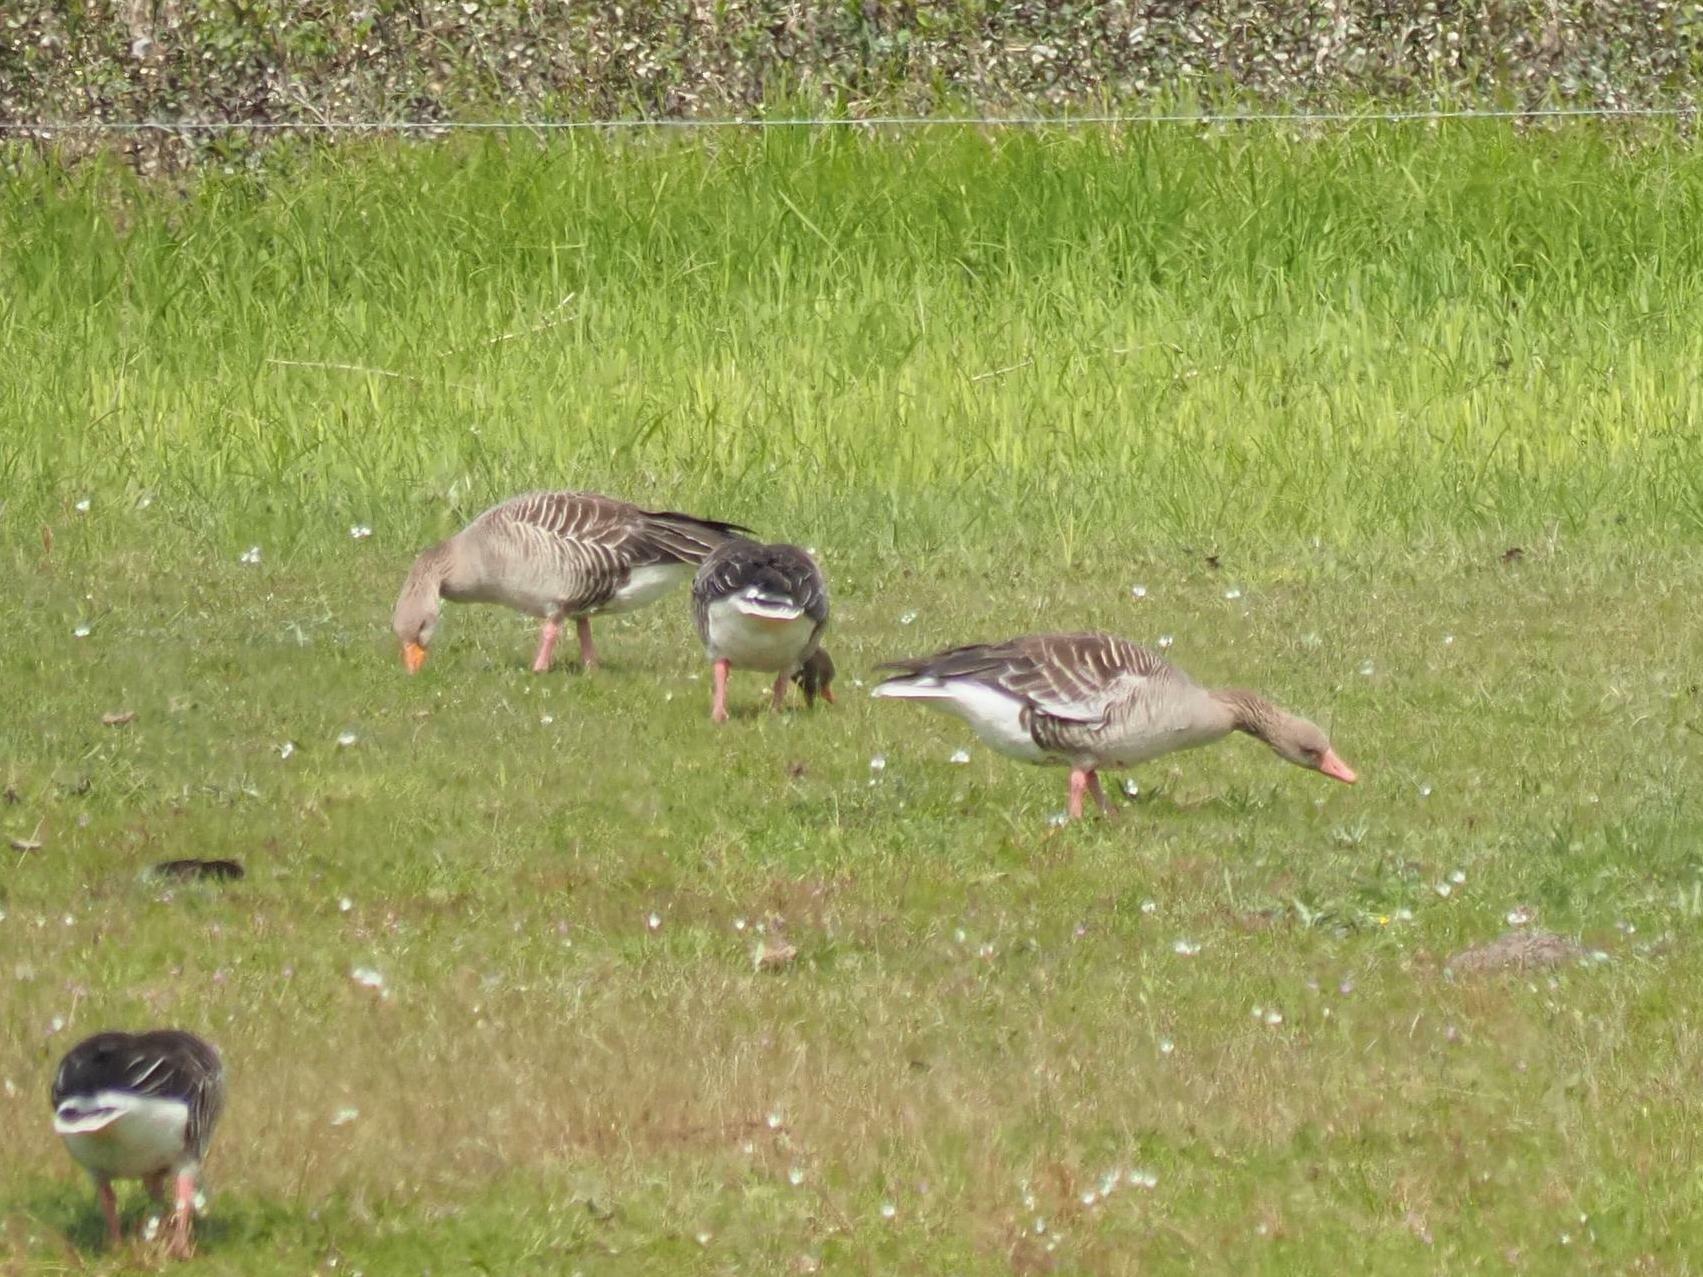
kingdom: Animalia
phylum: Chordata
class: Aves
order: Anseriformes
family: Anatidae
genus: Anser
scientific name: Anser anser
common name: Greylag goose
